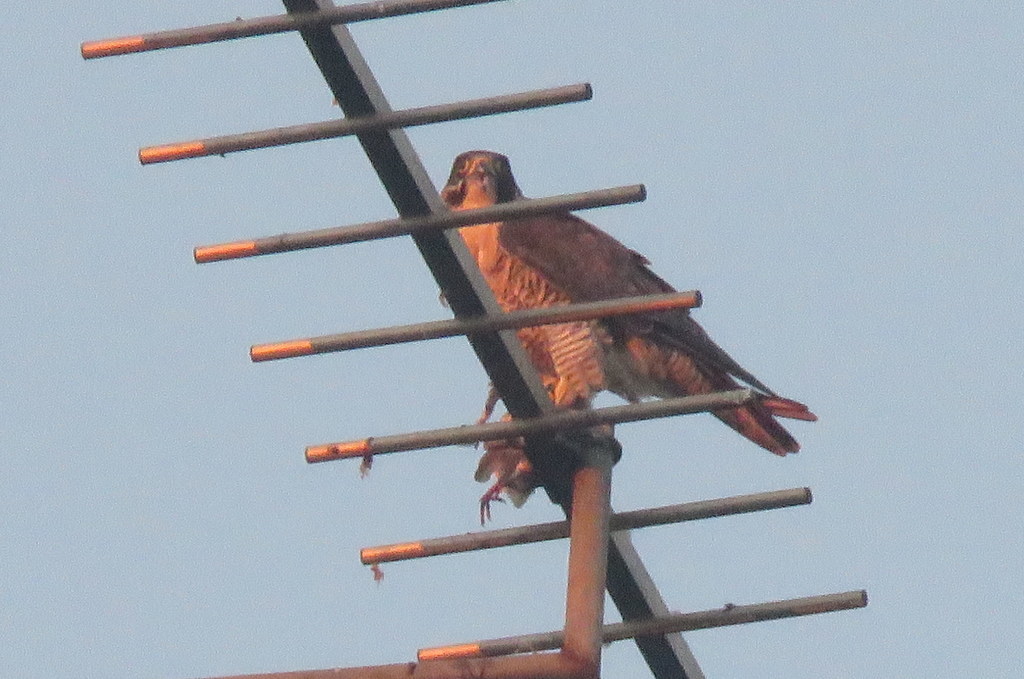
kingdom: Animalia
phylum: Chordata
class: Aves
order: Falconiformes
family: Falconidae
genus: Falco
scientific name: Falco peregrinus
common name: Peregrine falcon
